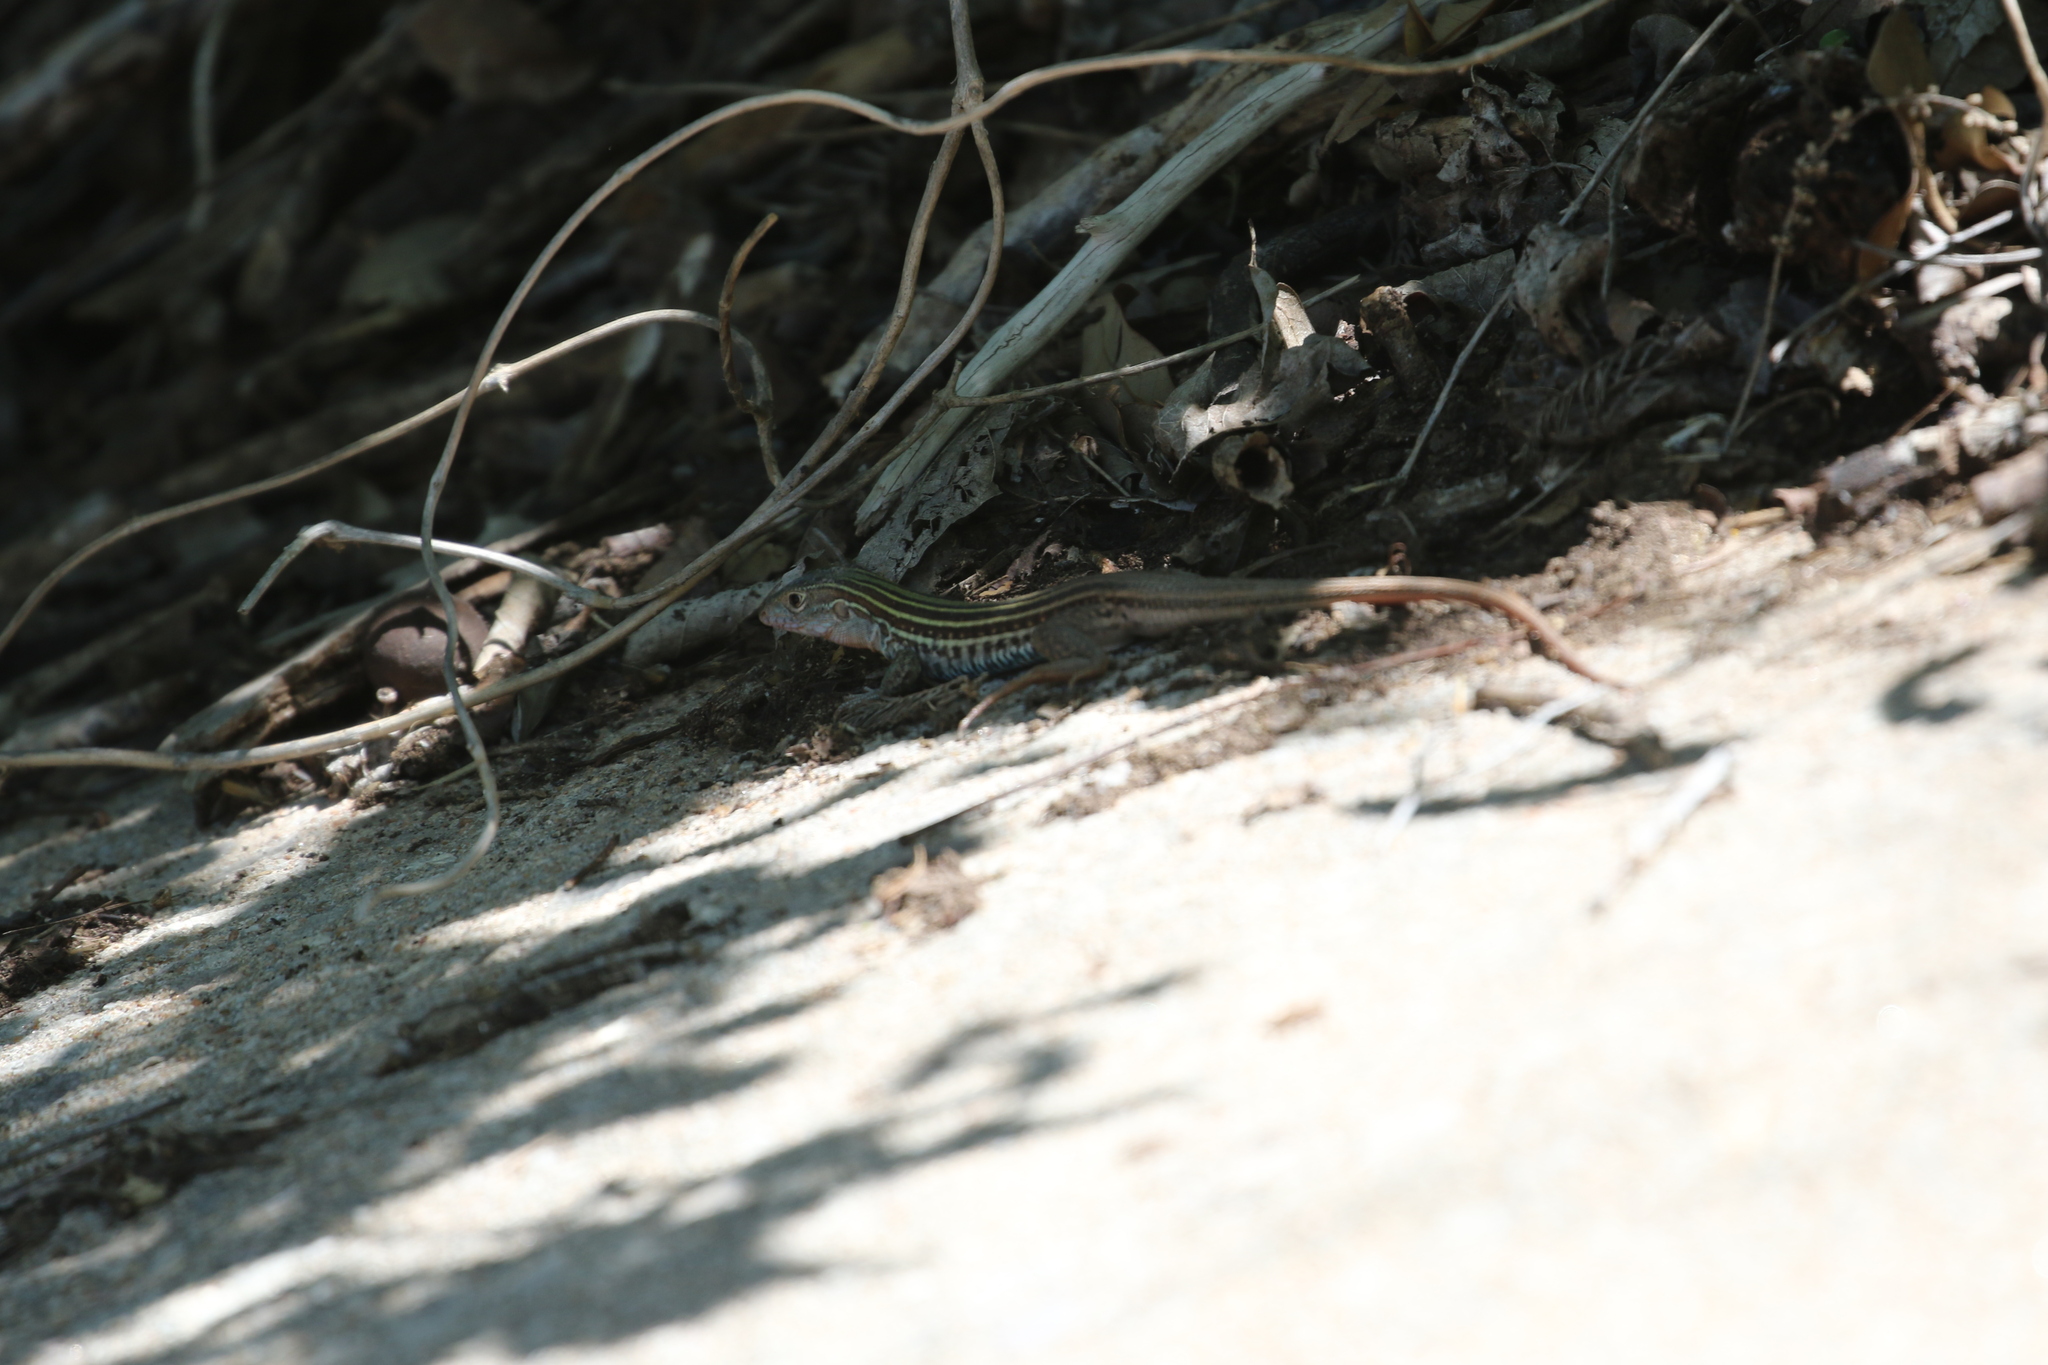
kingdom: Animalia
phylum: Chordata
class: Squamata
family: Teiidae
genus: Aspidoscelis
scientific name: Aspidoscelis gularis
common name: Eastern spotted whiptail
